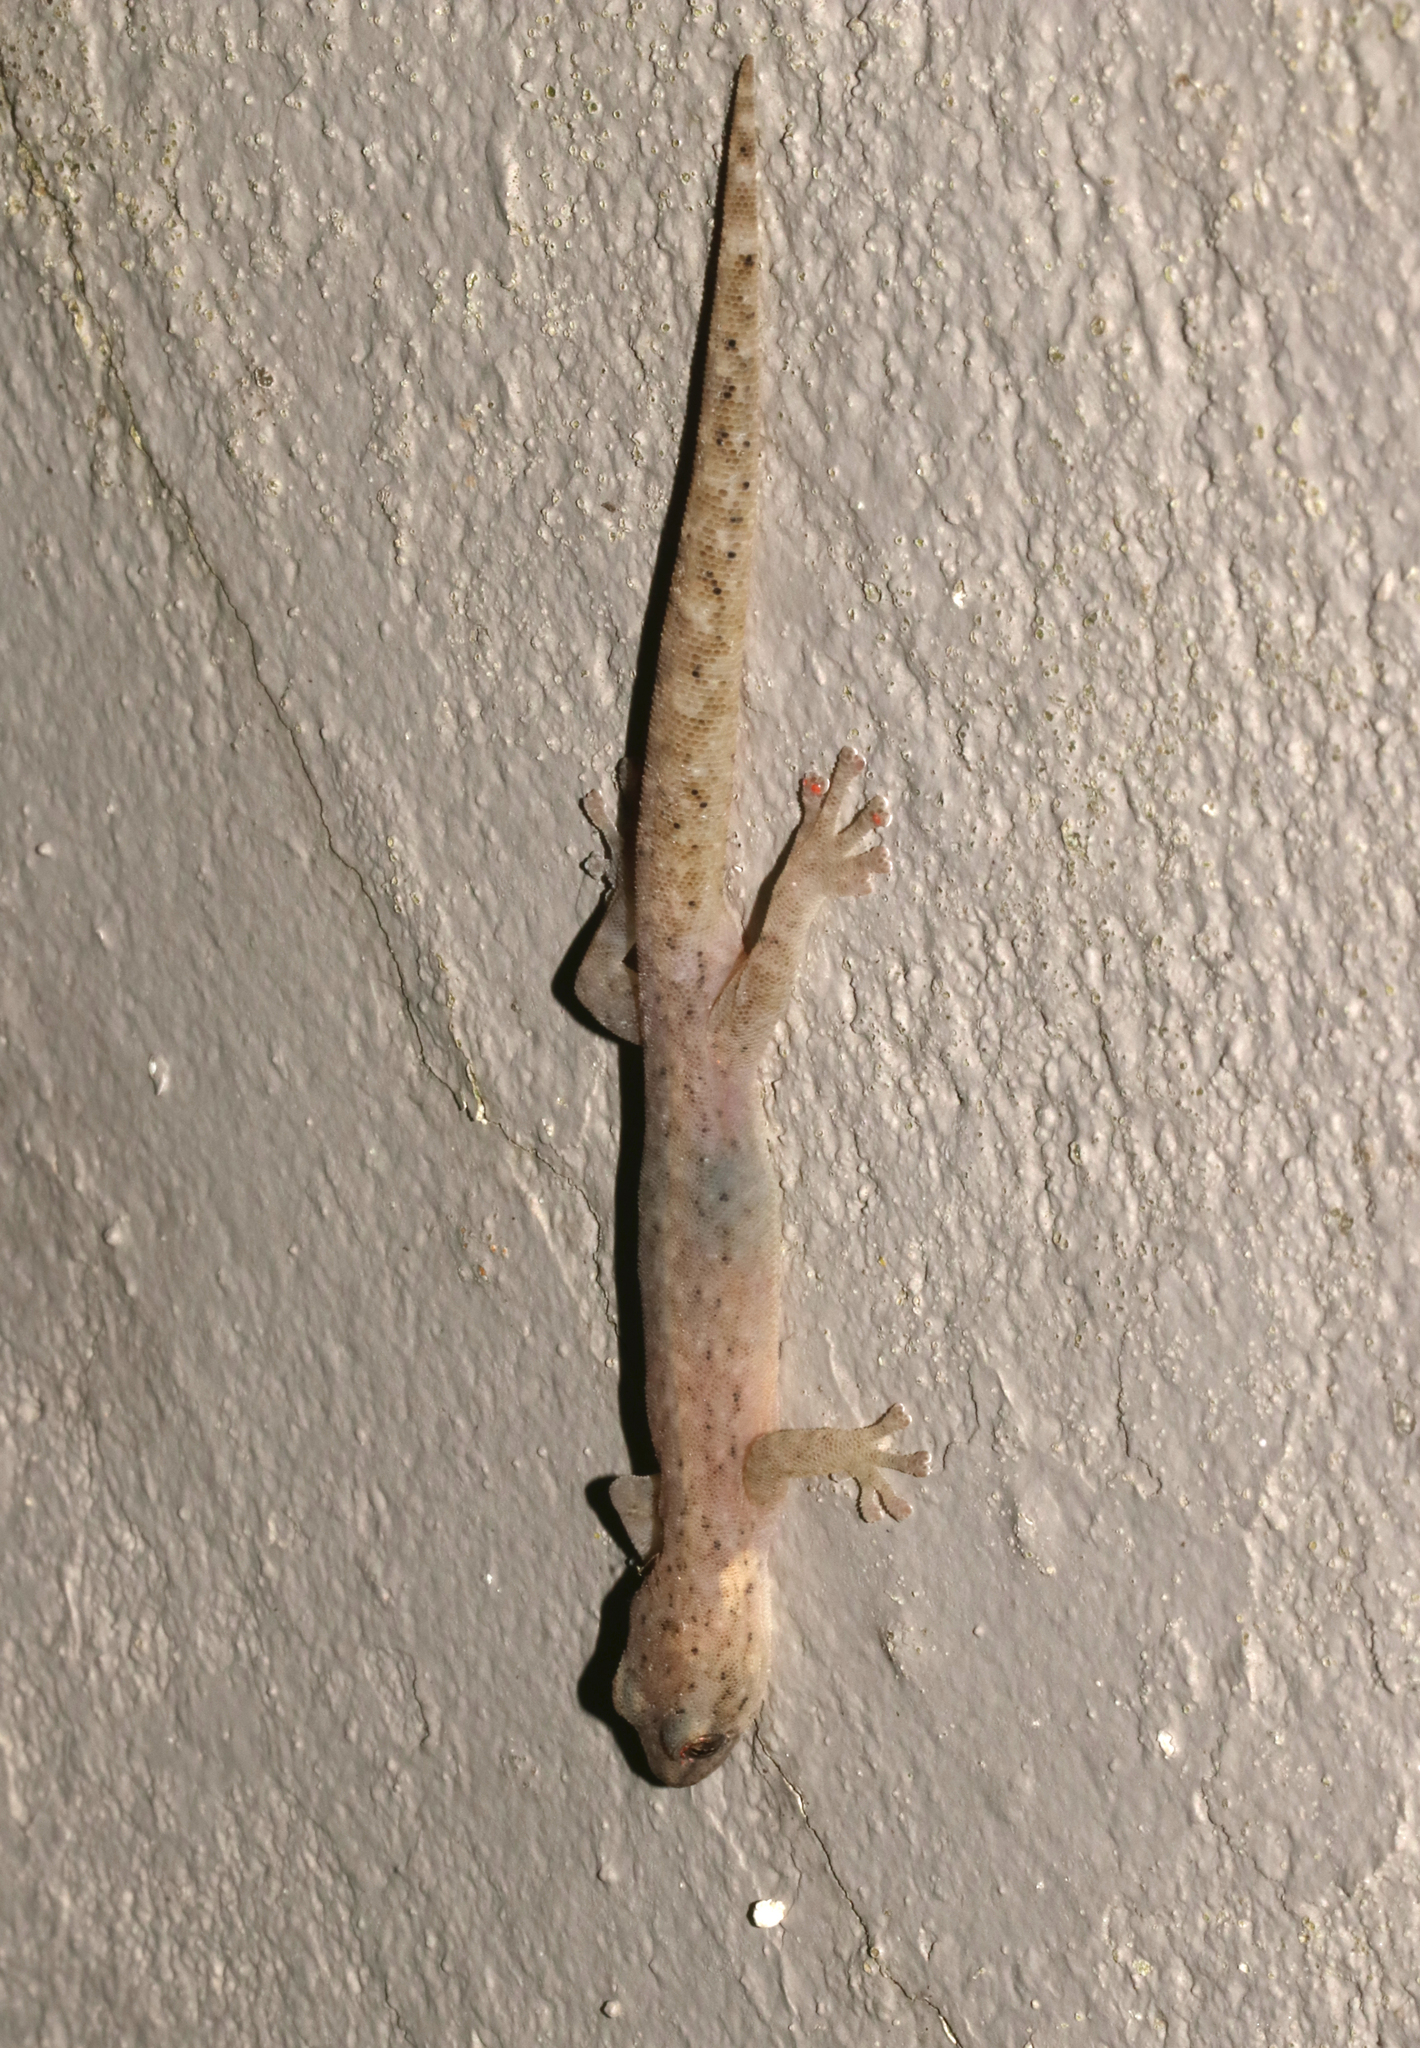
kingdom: Animalia
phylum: Chordata
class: Squamata
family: Gekkonidae
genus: Afrogecko
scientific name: Afrogecko porphyreus
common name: Marbled leaf-toed gecko
